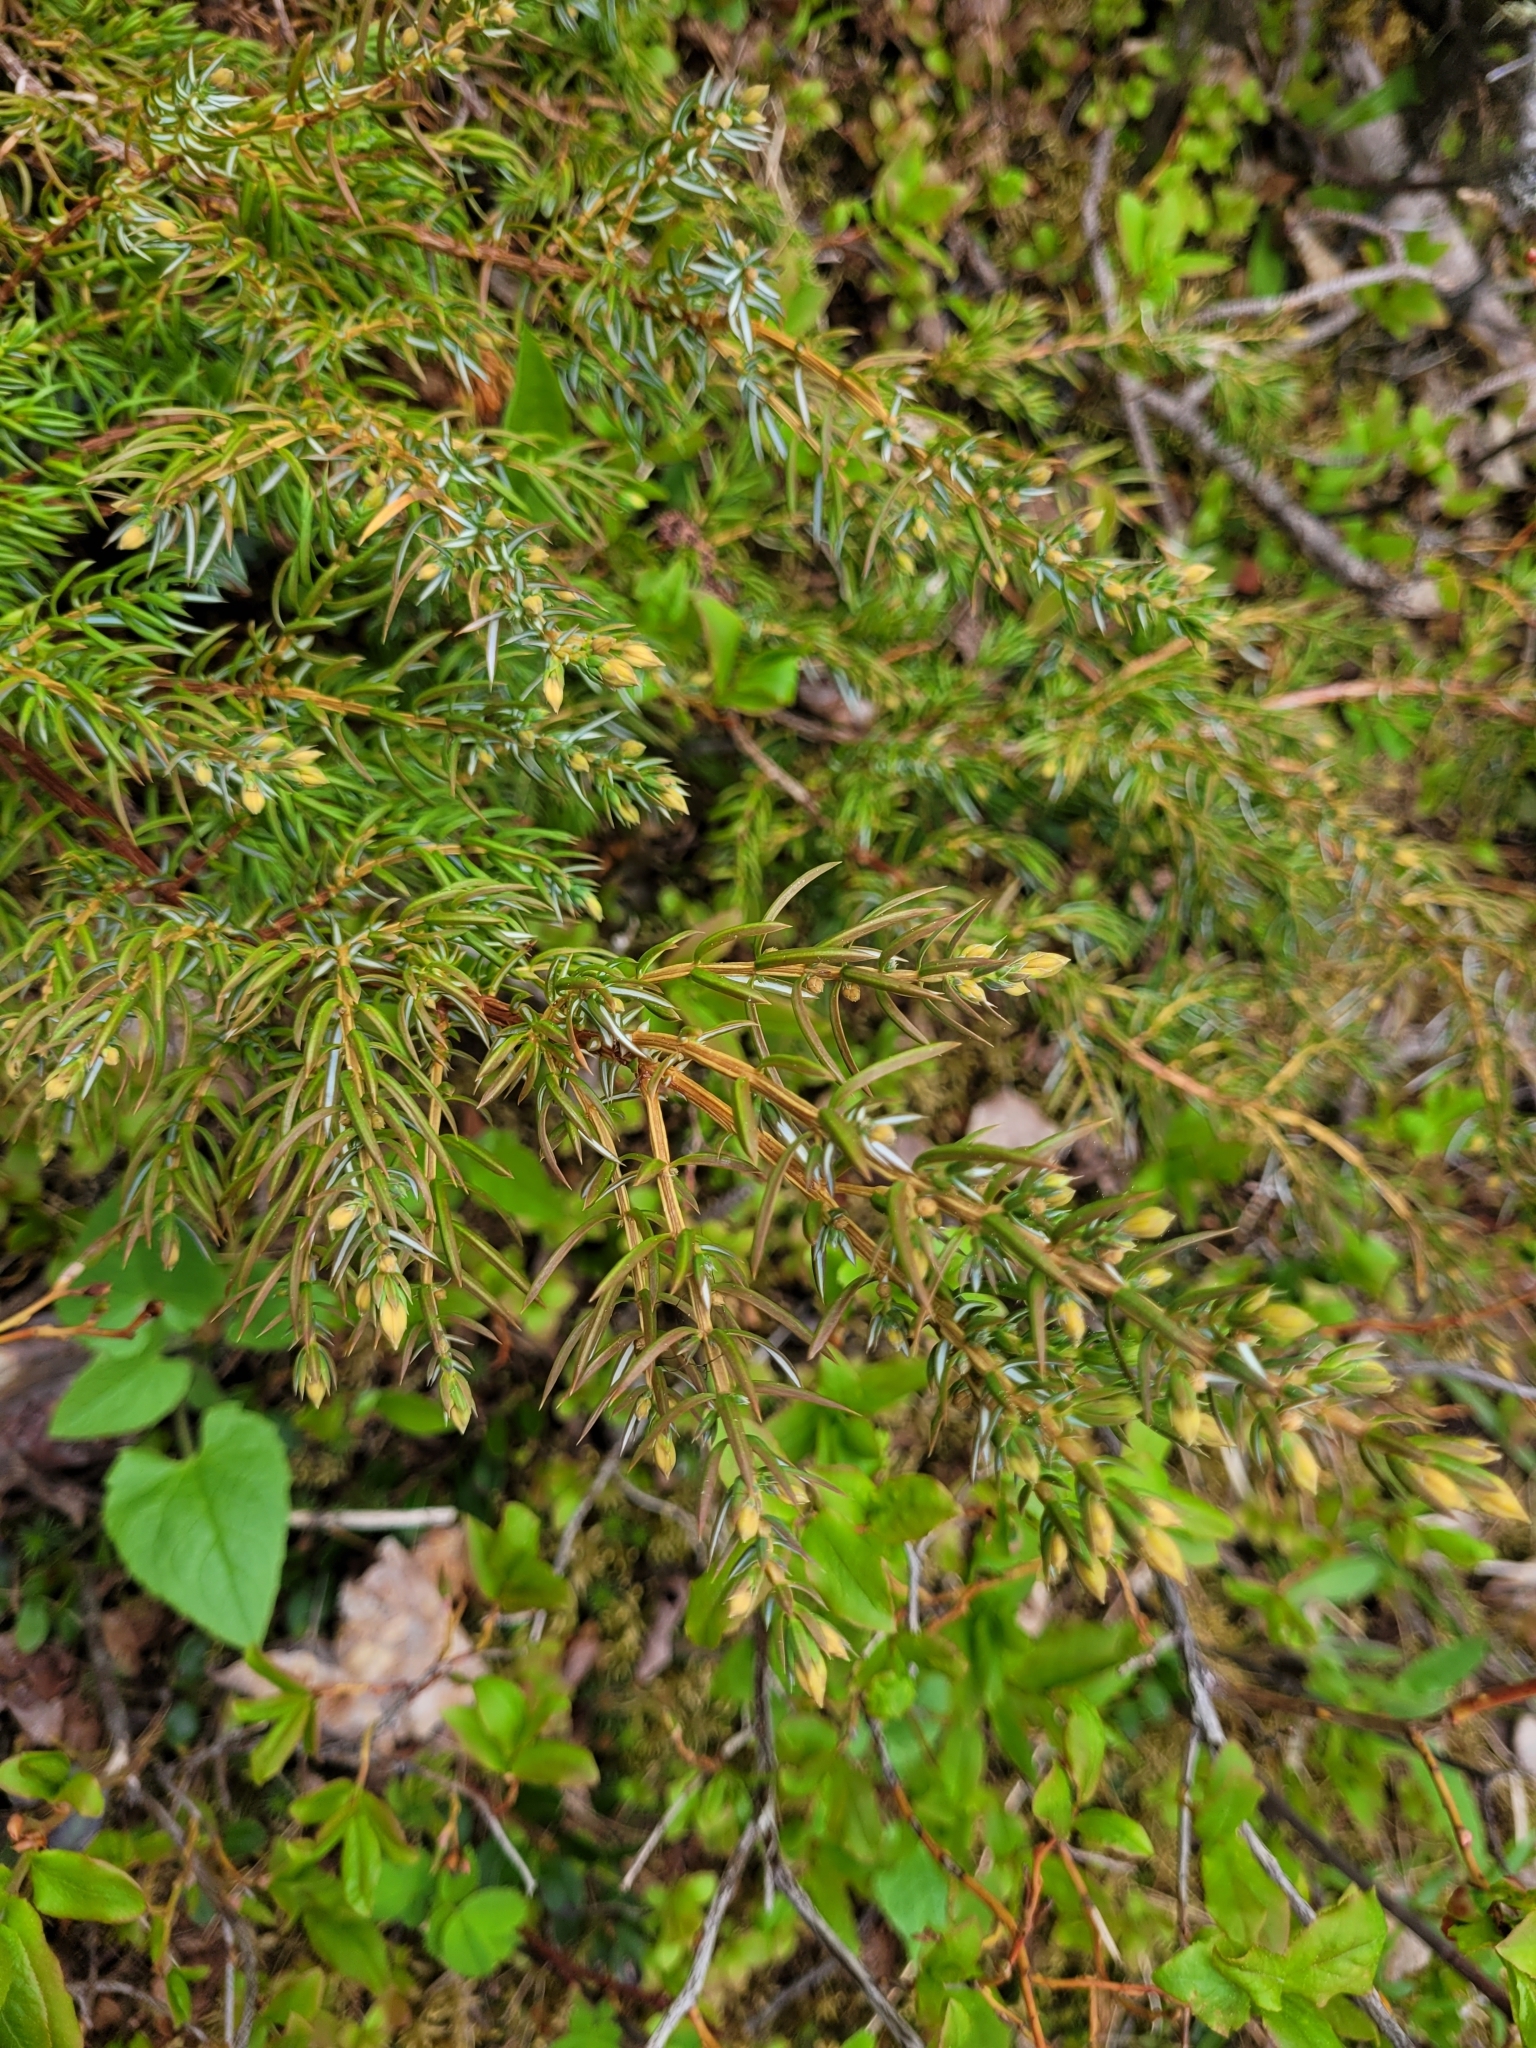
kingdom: Plantae
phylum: Tracheophyta
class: Pinopsida
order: Pinales
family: Cupressaceae
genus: Juniperus
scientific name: Juniperus communis
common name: Common juniper
